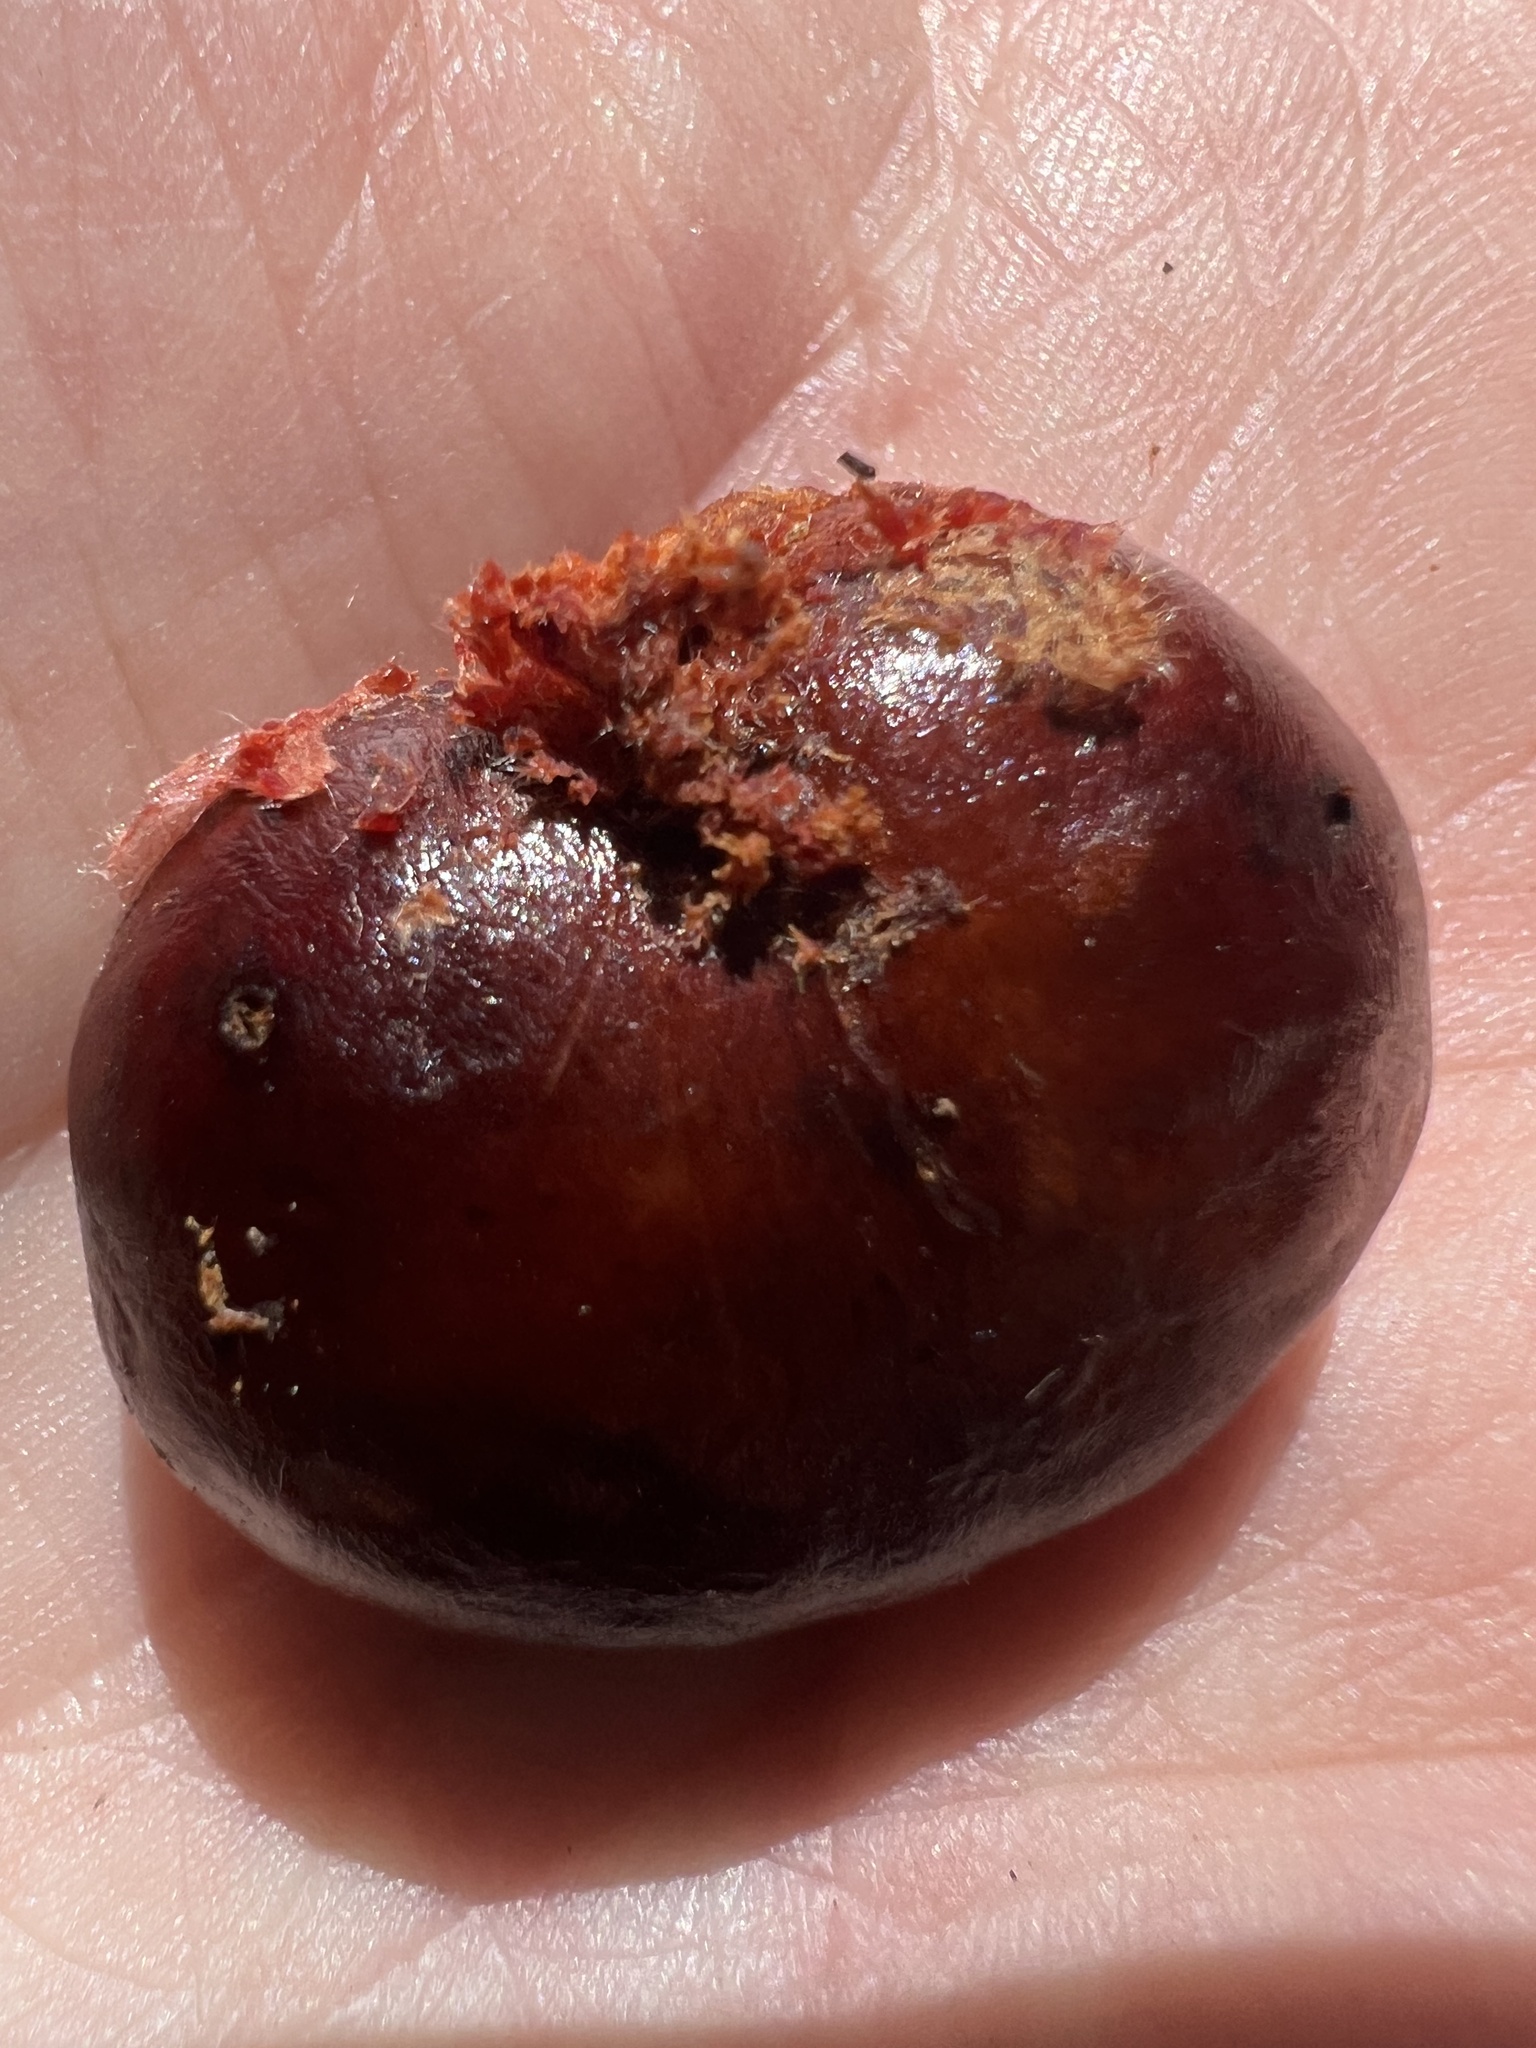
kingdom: Plantae
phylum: Tracheophyta
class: Magnoliopsida
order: Sapindales
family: Sapindaceae
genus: Castanospora
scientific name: Castanospora alphandii
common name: Brown-tamarind
